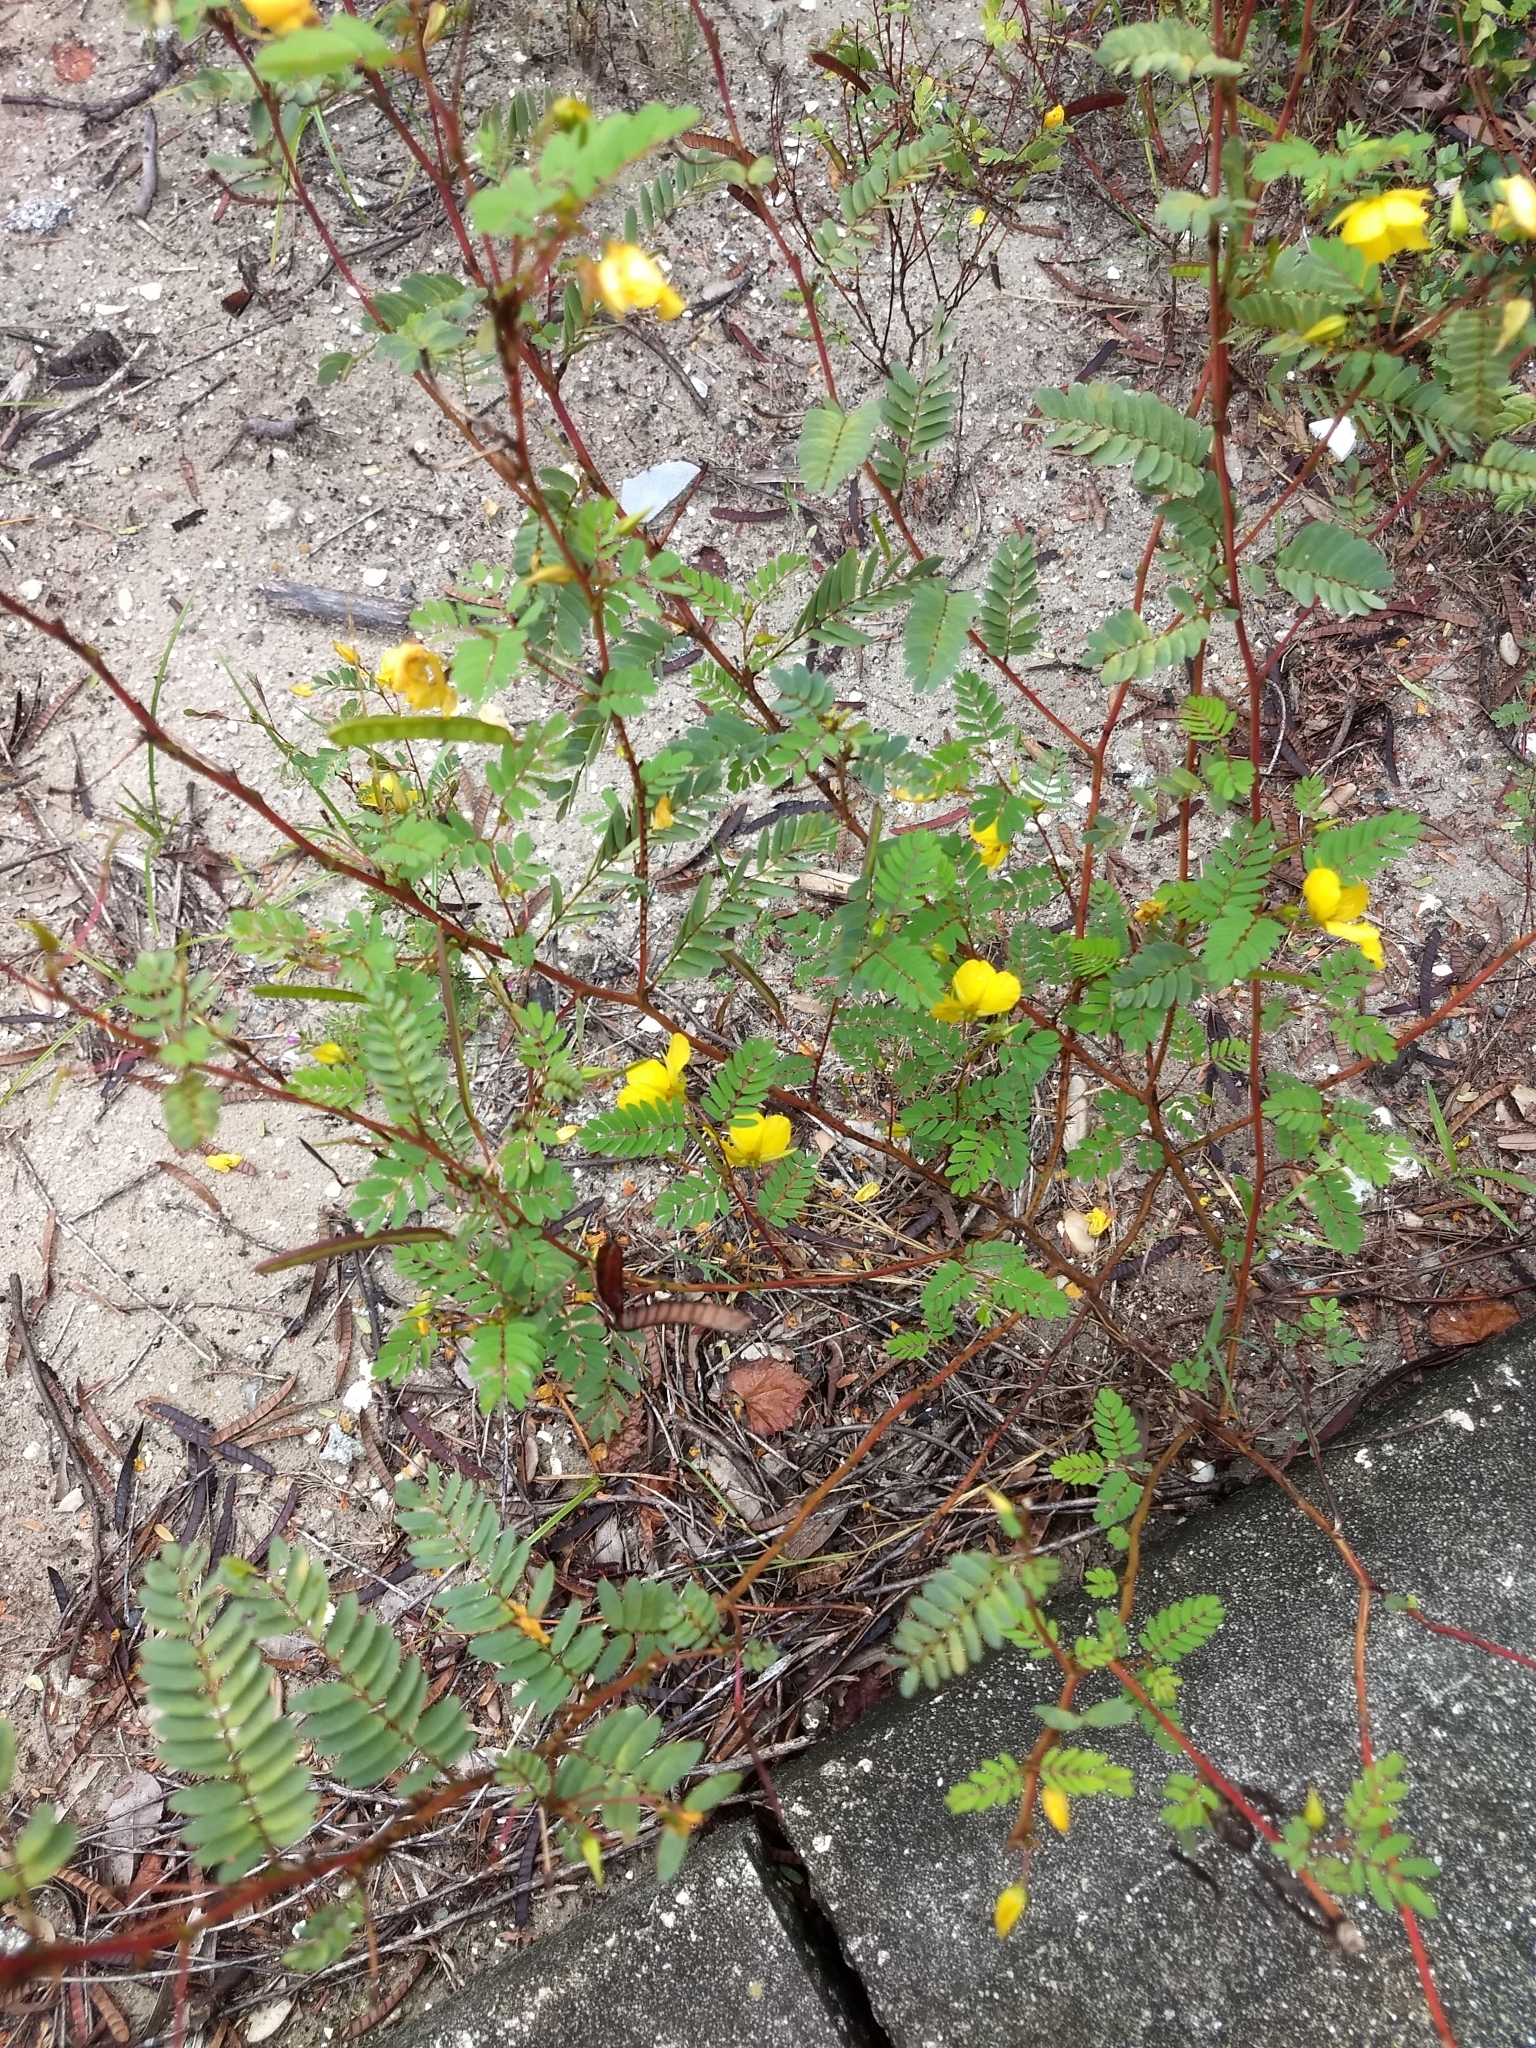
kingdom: Plantae
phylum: Tracheophyta
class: Magnoliopsida
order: Fabales
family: Fabaceae
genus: Chamaecrista
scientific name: Chamaecrista fasciculata
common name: Golden cassia
